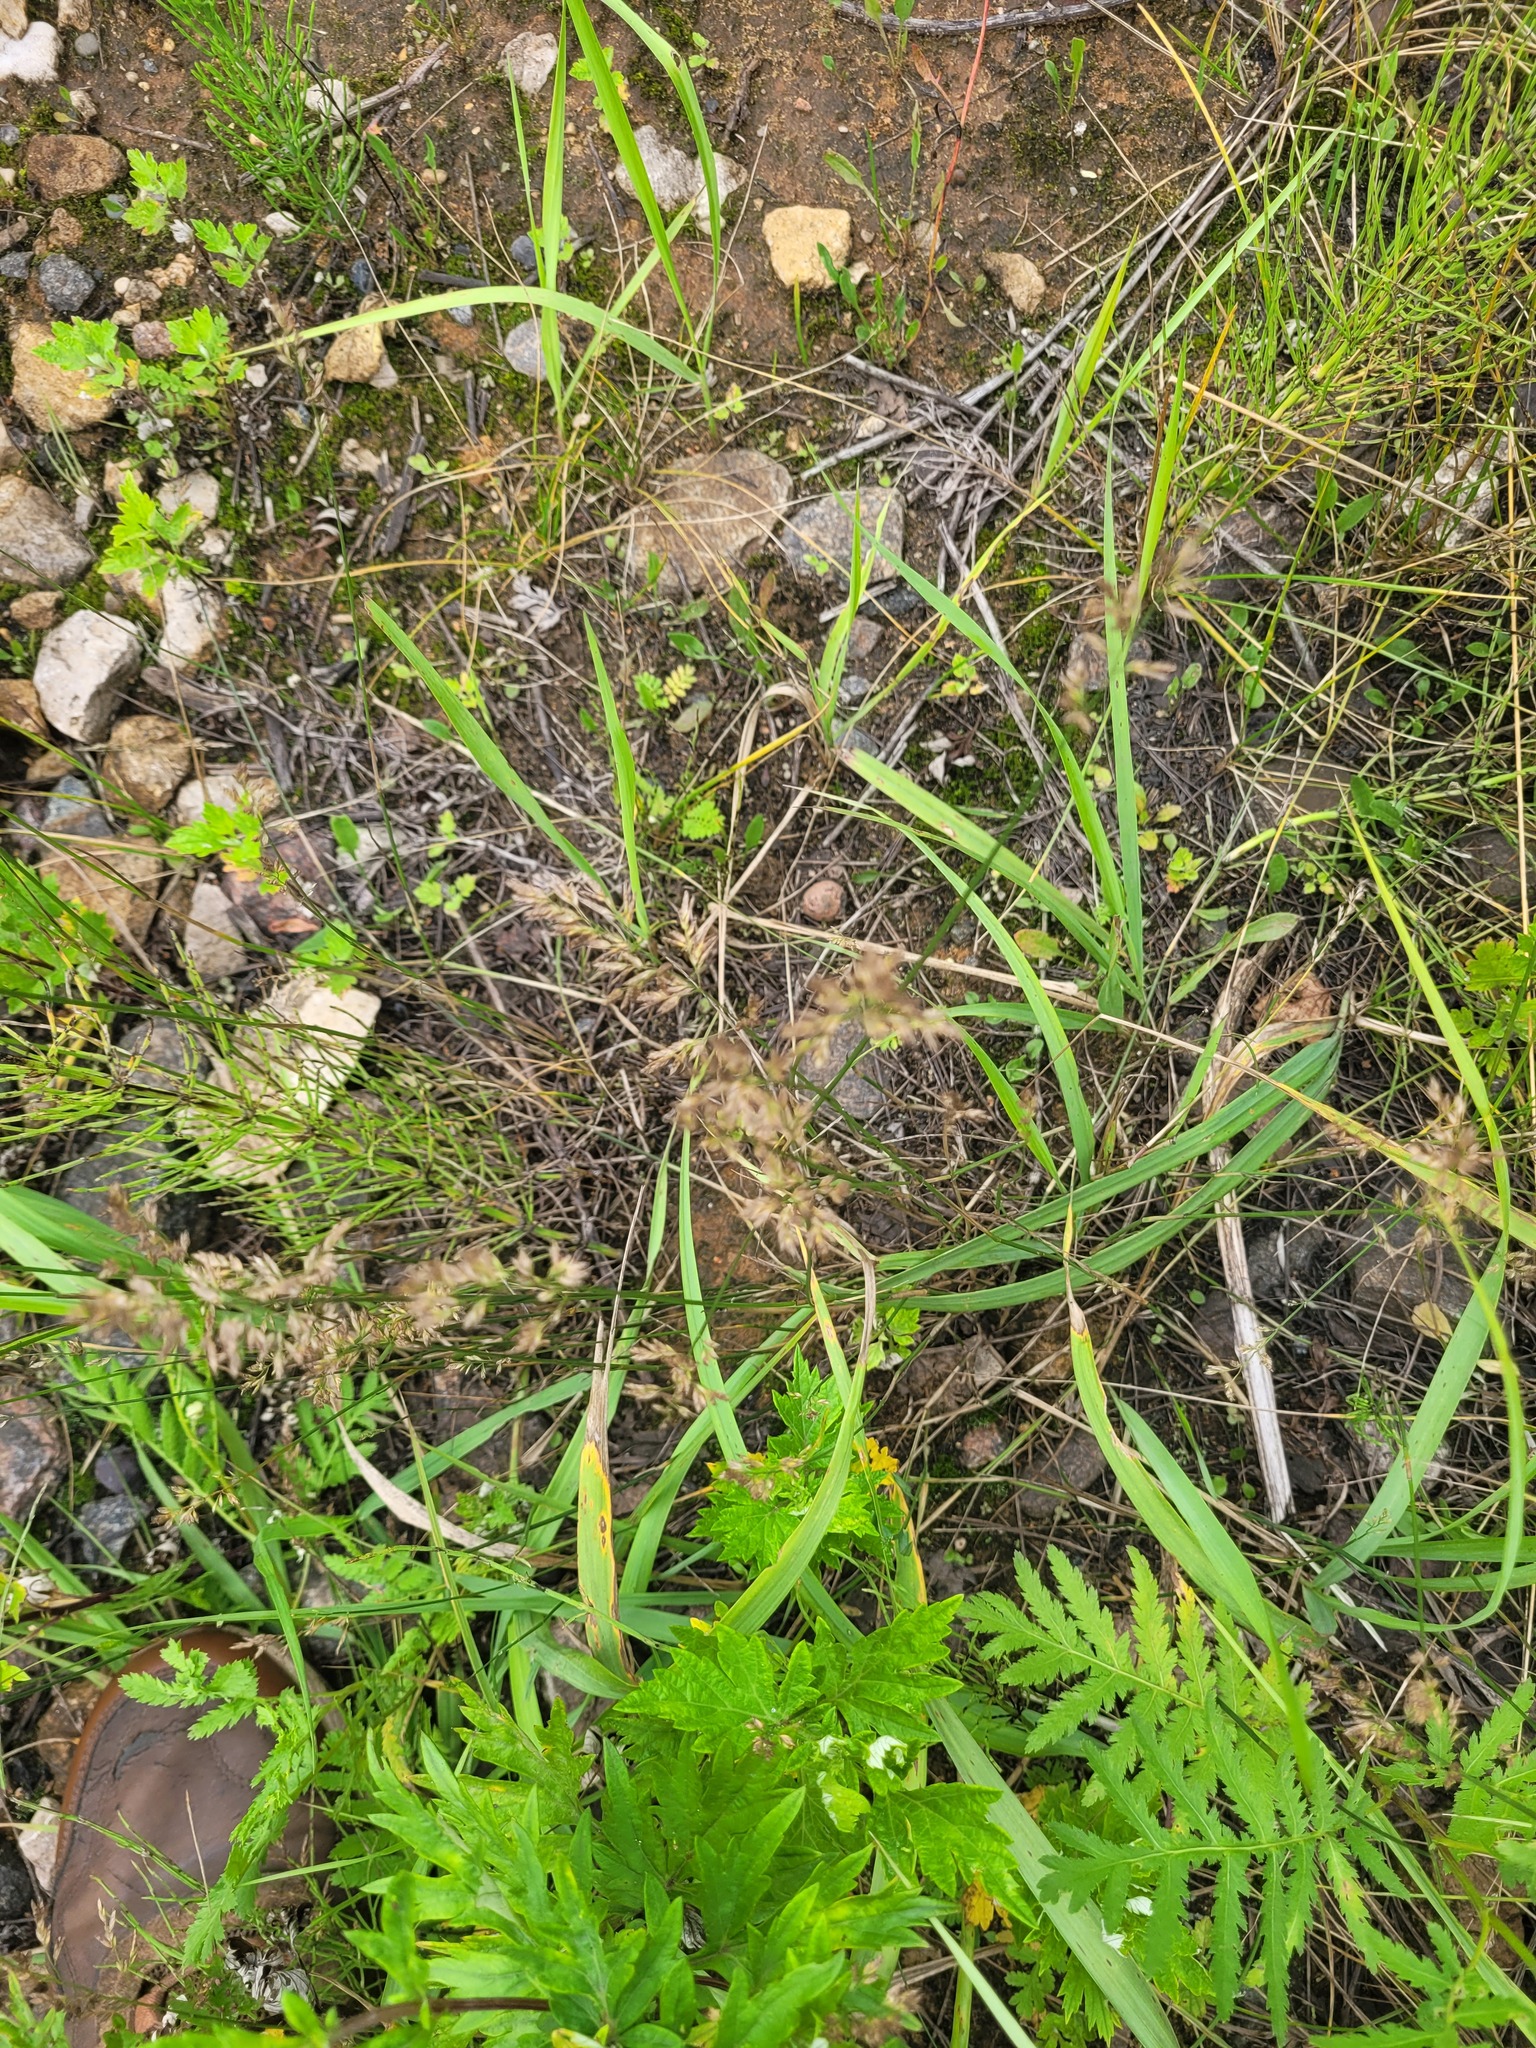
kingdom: Plantae
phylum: Tracheophyta
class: Liliopsida
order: Poales
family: Poaceae
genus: Poa
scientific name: Poa compressa
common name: Canada bluegrass
